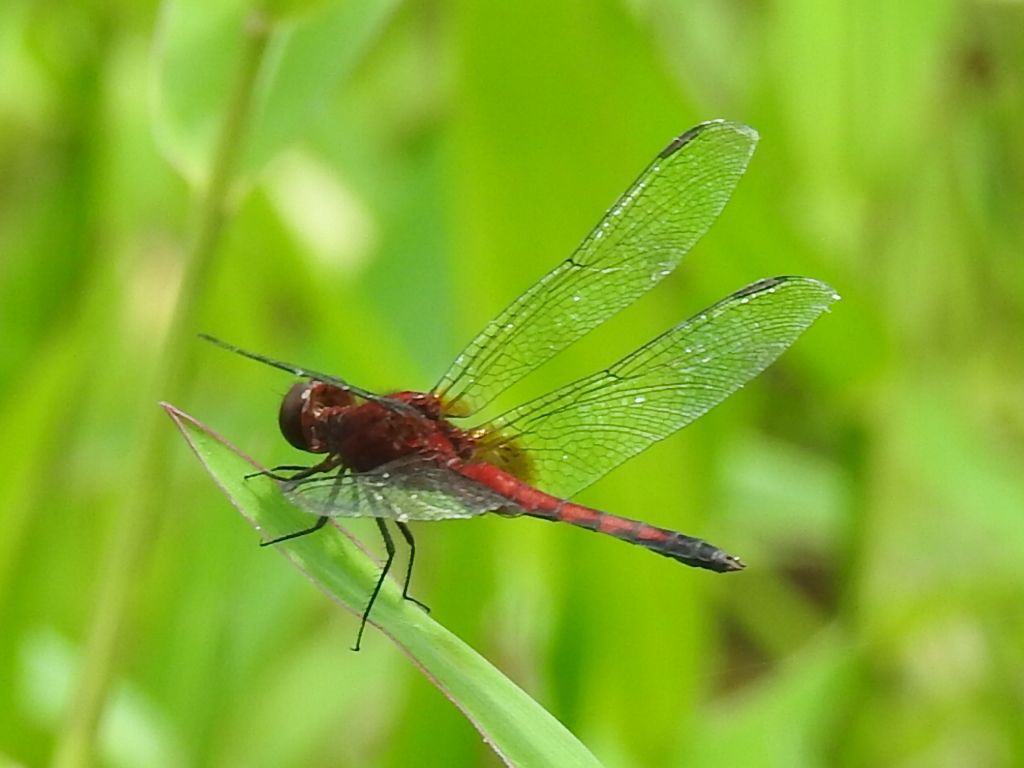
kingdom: Animalia
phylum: Arthropoda
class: Insecta
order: Odonata
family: Libellulidae
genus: Erythrodiplax
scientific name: Erythrodiplax fusca
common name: Red-faced dragonlet
